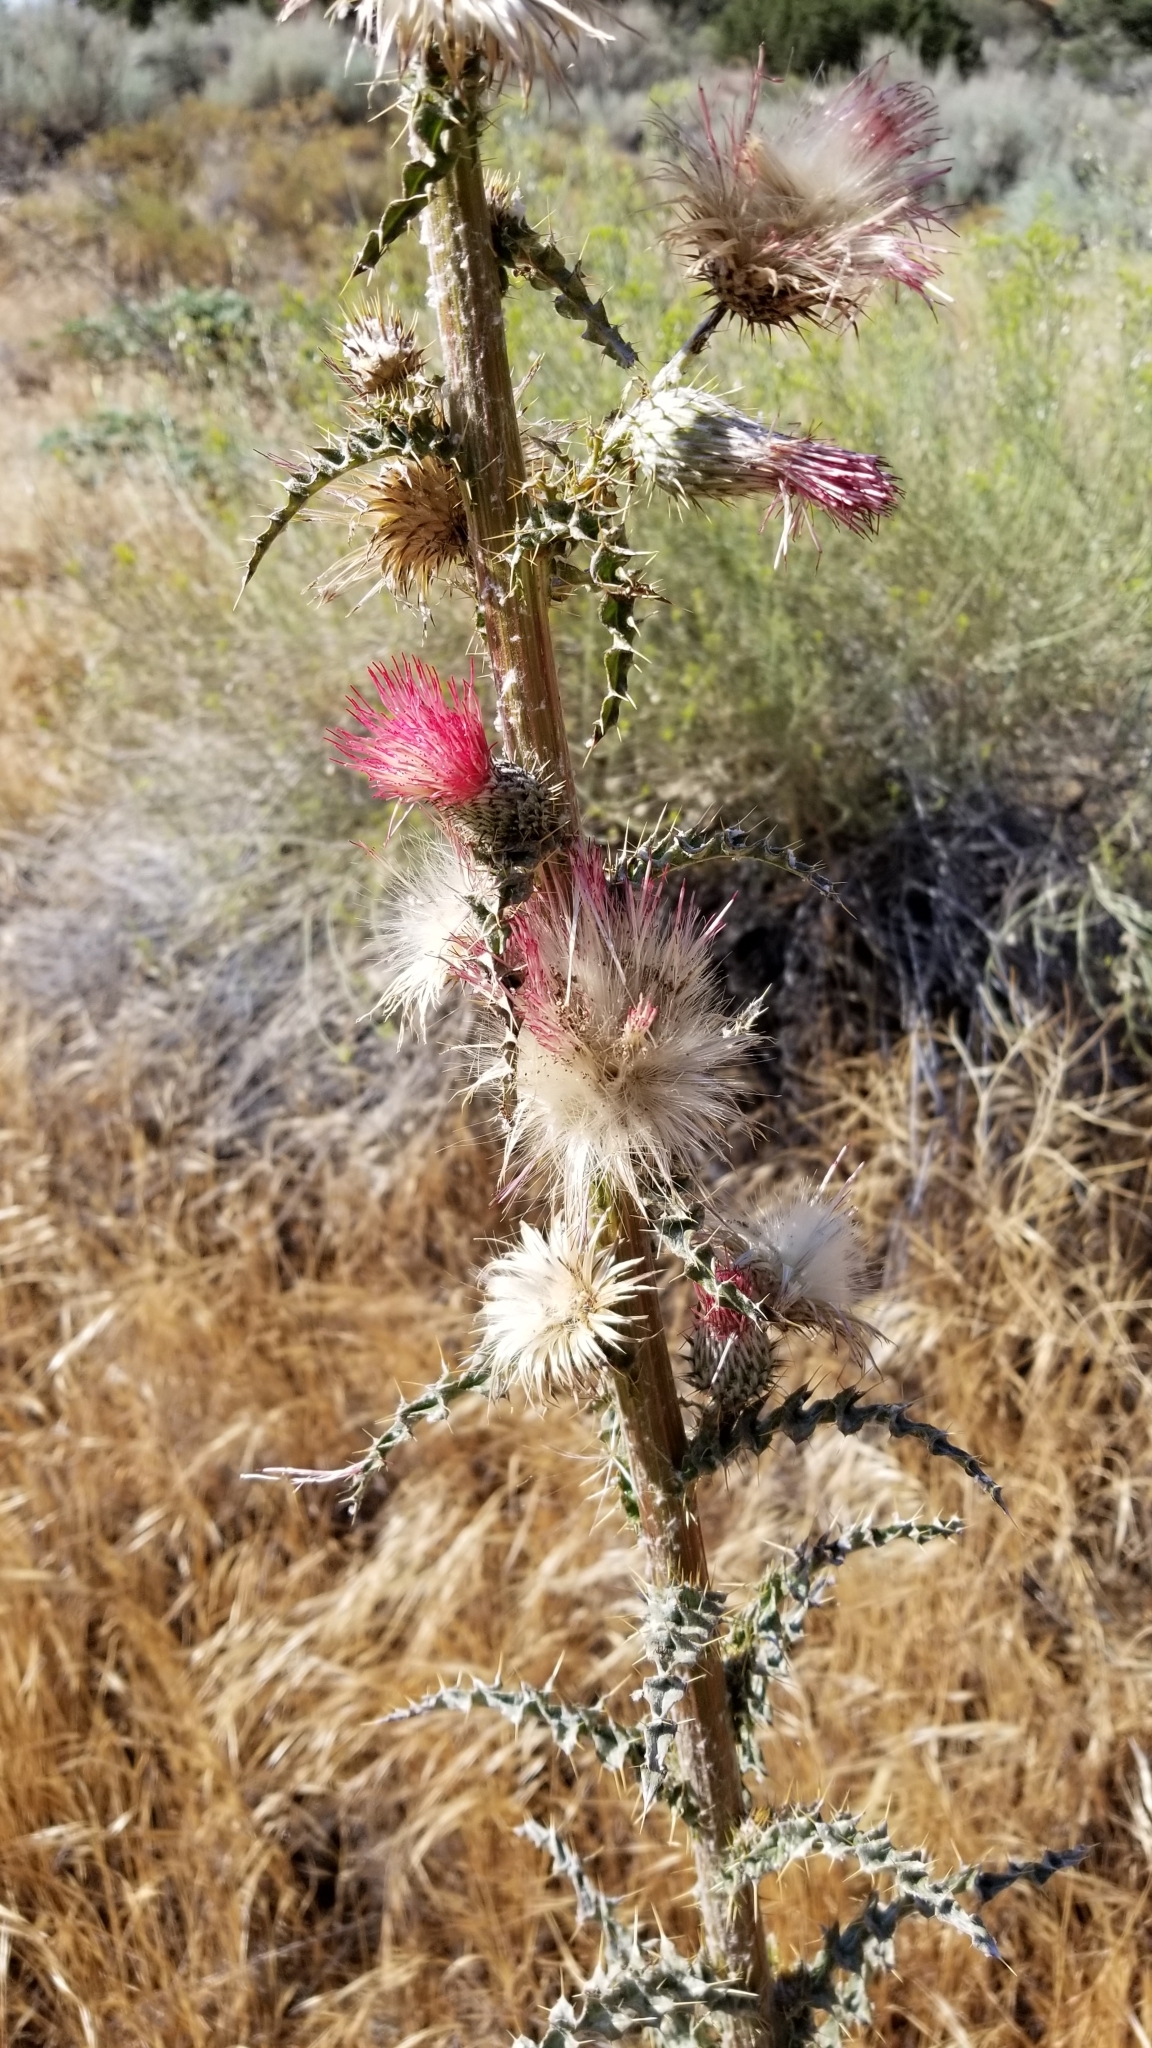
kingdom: Plantae
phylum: Tracheophyta
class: Magnoliopsida
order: Asterales
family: Asteraceae
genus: Cirsium
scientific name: Cirsium occidentale
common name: Western thistle
